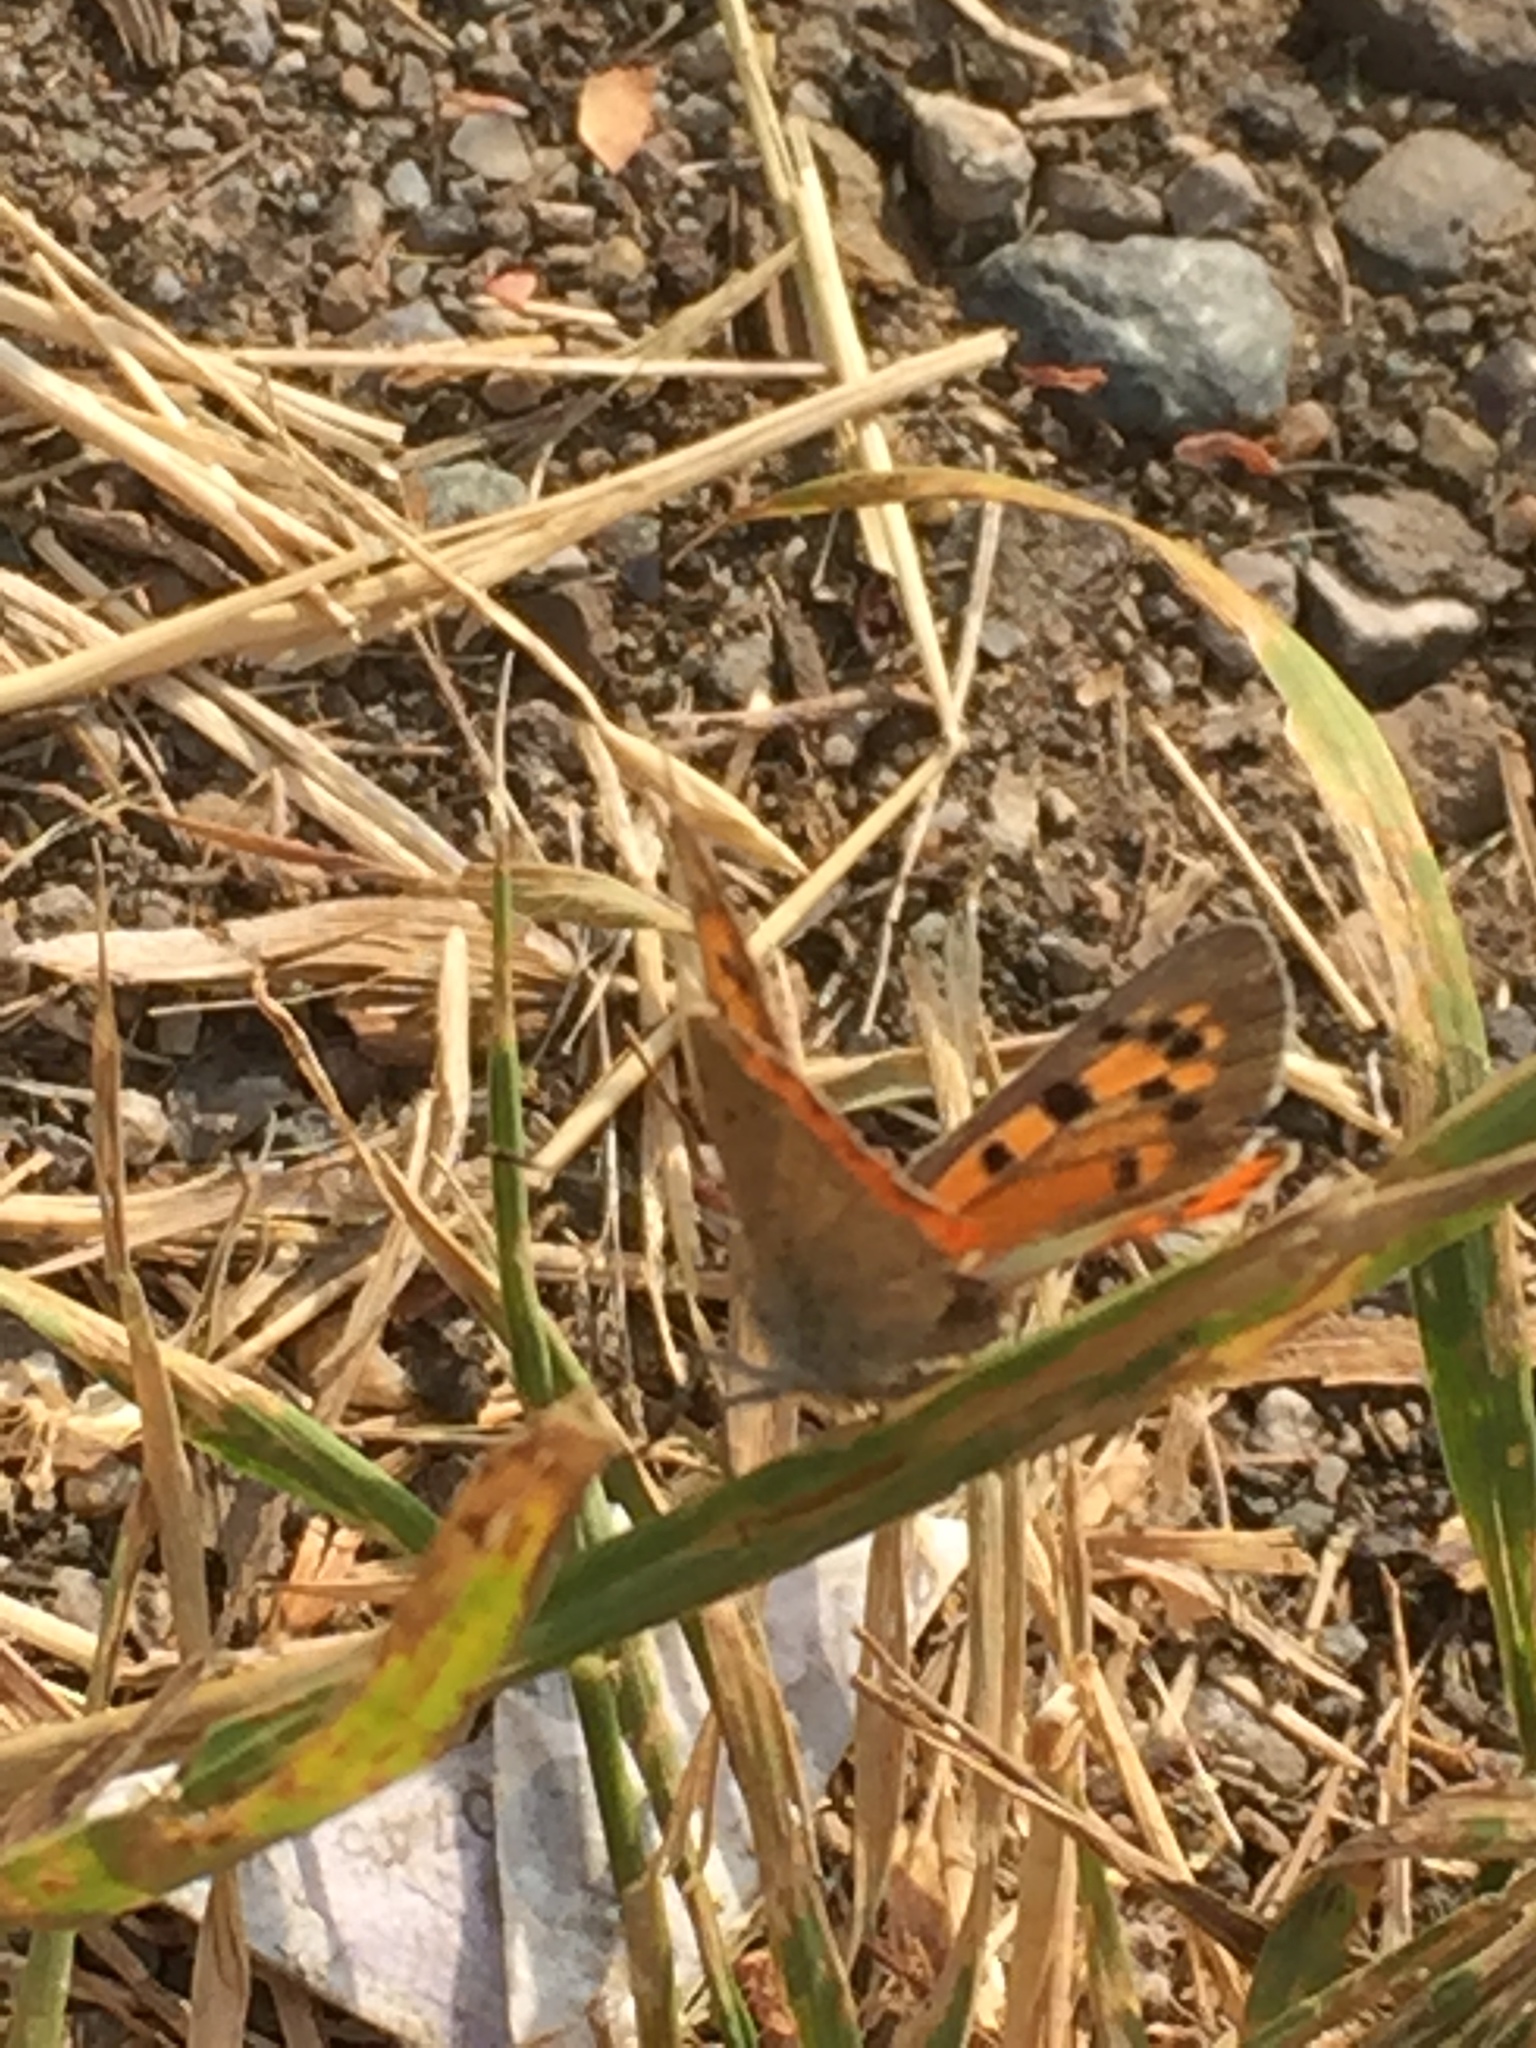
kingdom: Animalia
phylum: Arthropoda
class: Insecta
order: Lepidoptera
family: Lycaenidae
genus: Lycaena
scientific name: Lycaena phlaeas
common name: Small copper
